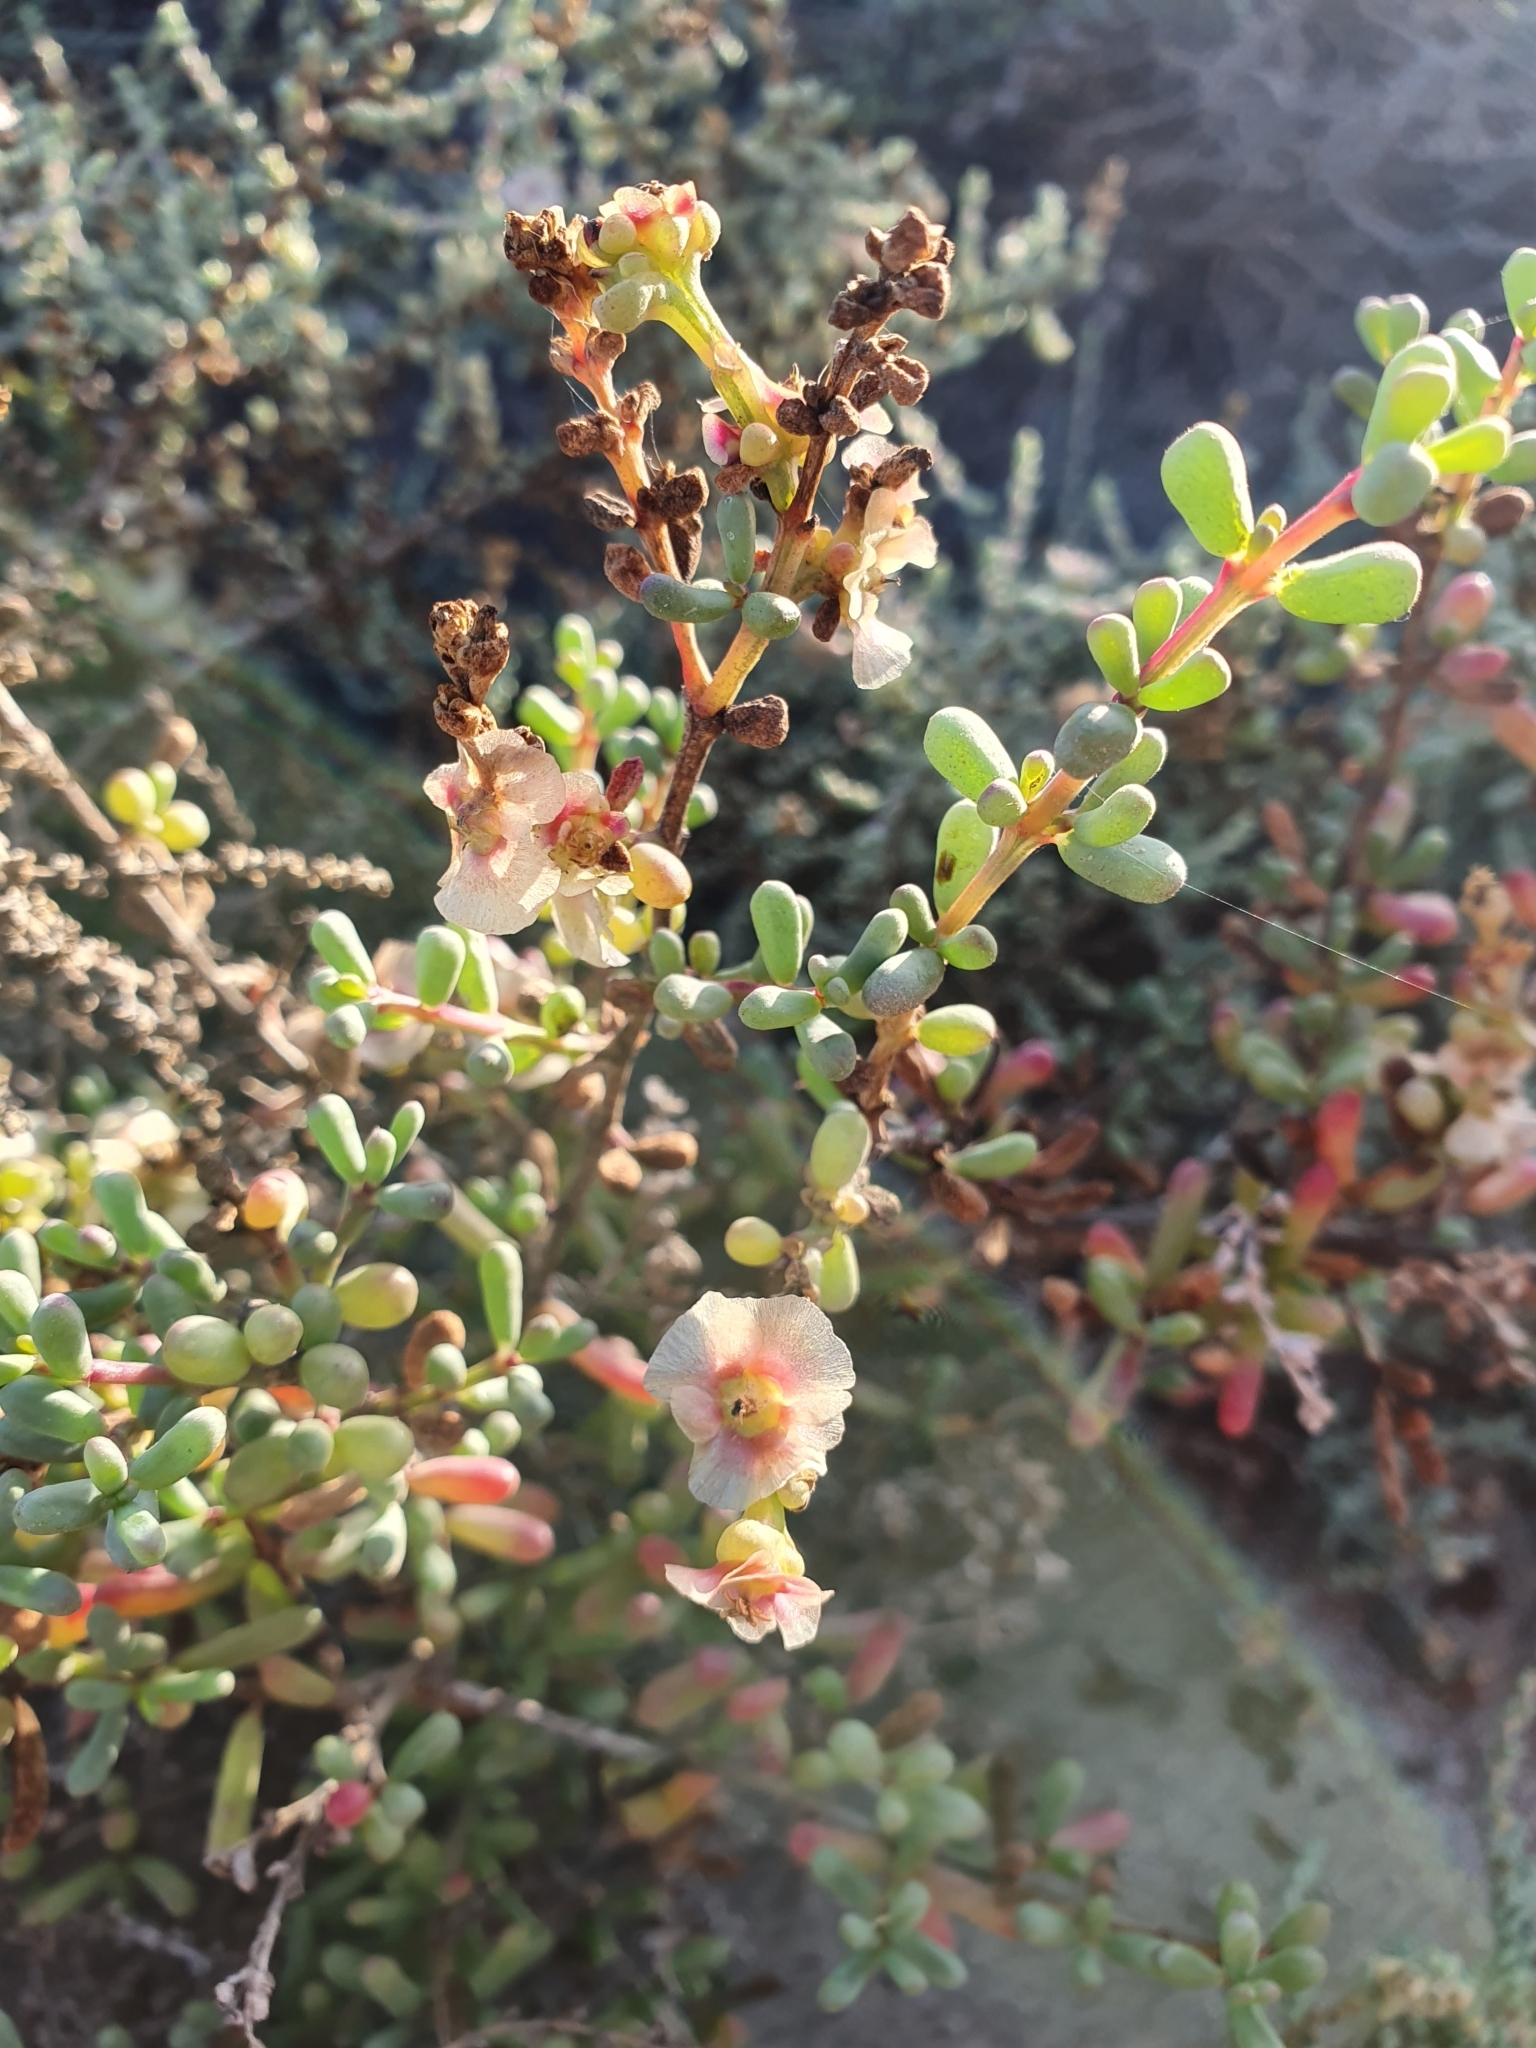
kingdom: Plantae
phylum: Tracheophyta
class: Magnoliopsida
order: Caryophyllales
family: Amaranthaceae
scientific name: Amaranthaceae
